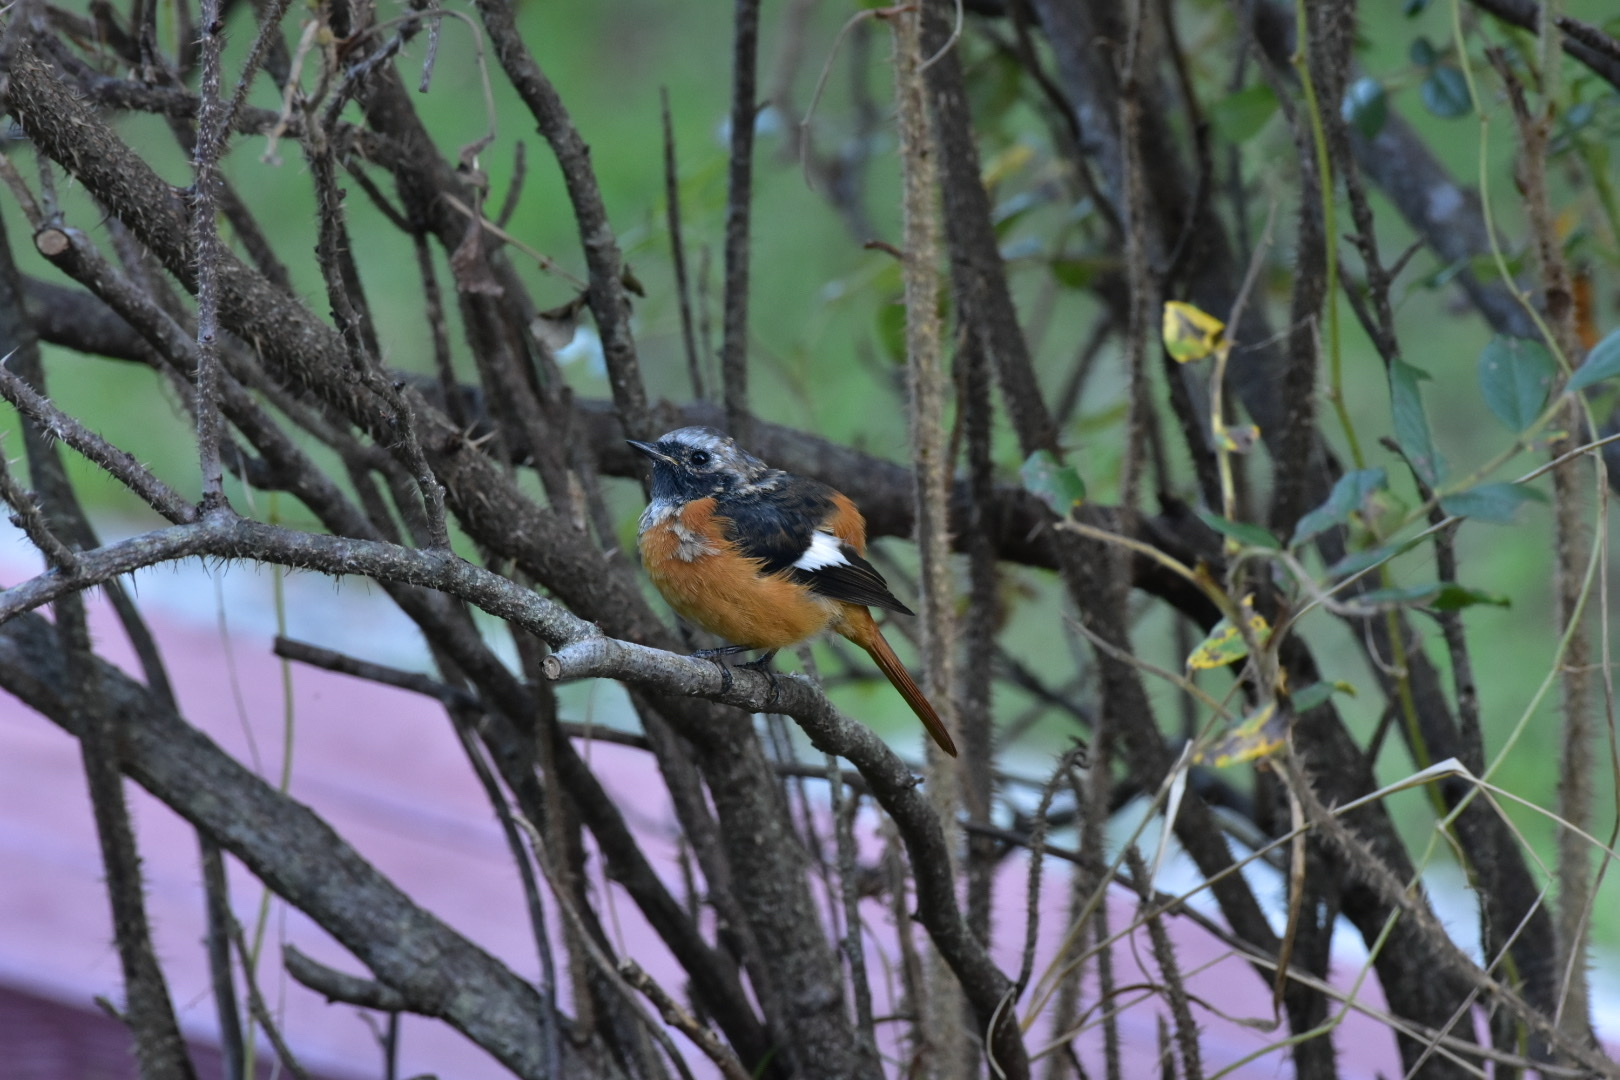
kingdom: Animalia
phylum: Chordata
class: Aves
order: Passeriformes
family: Muscicapidae
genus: Phoenicurus
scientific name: Phoenicurus auroreus
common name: Daurian redstart
